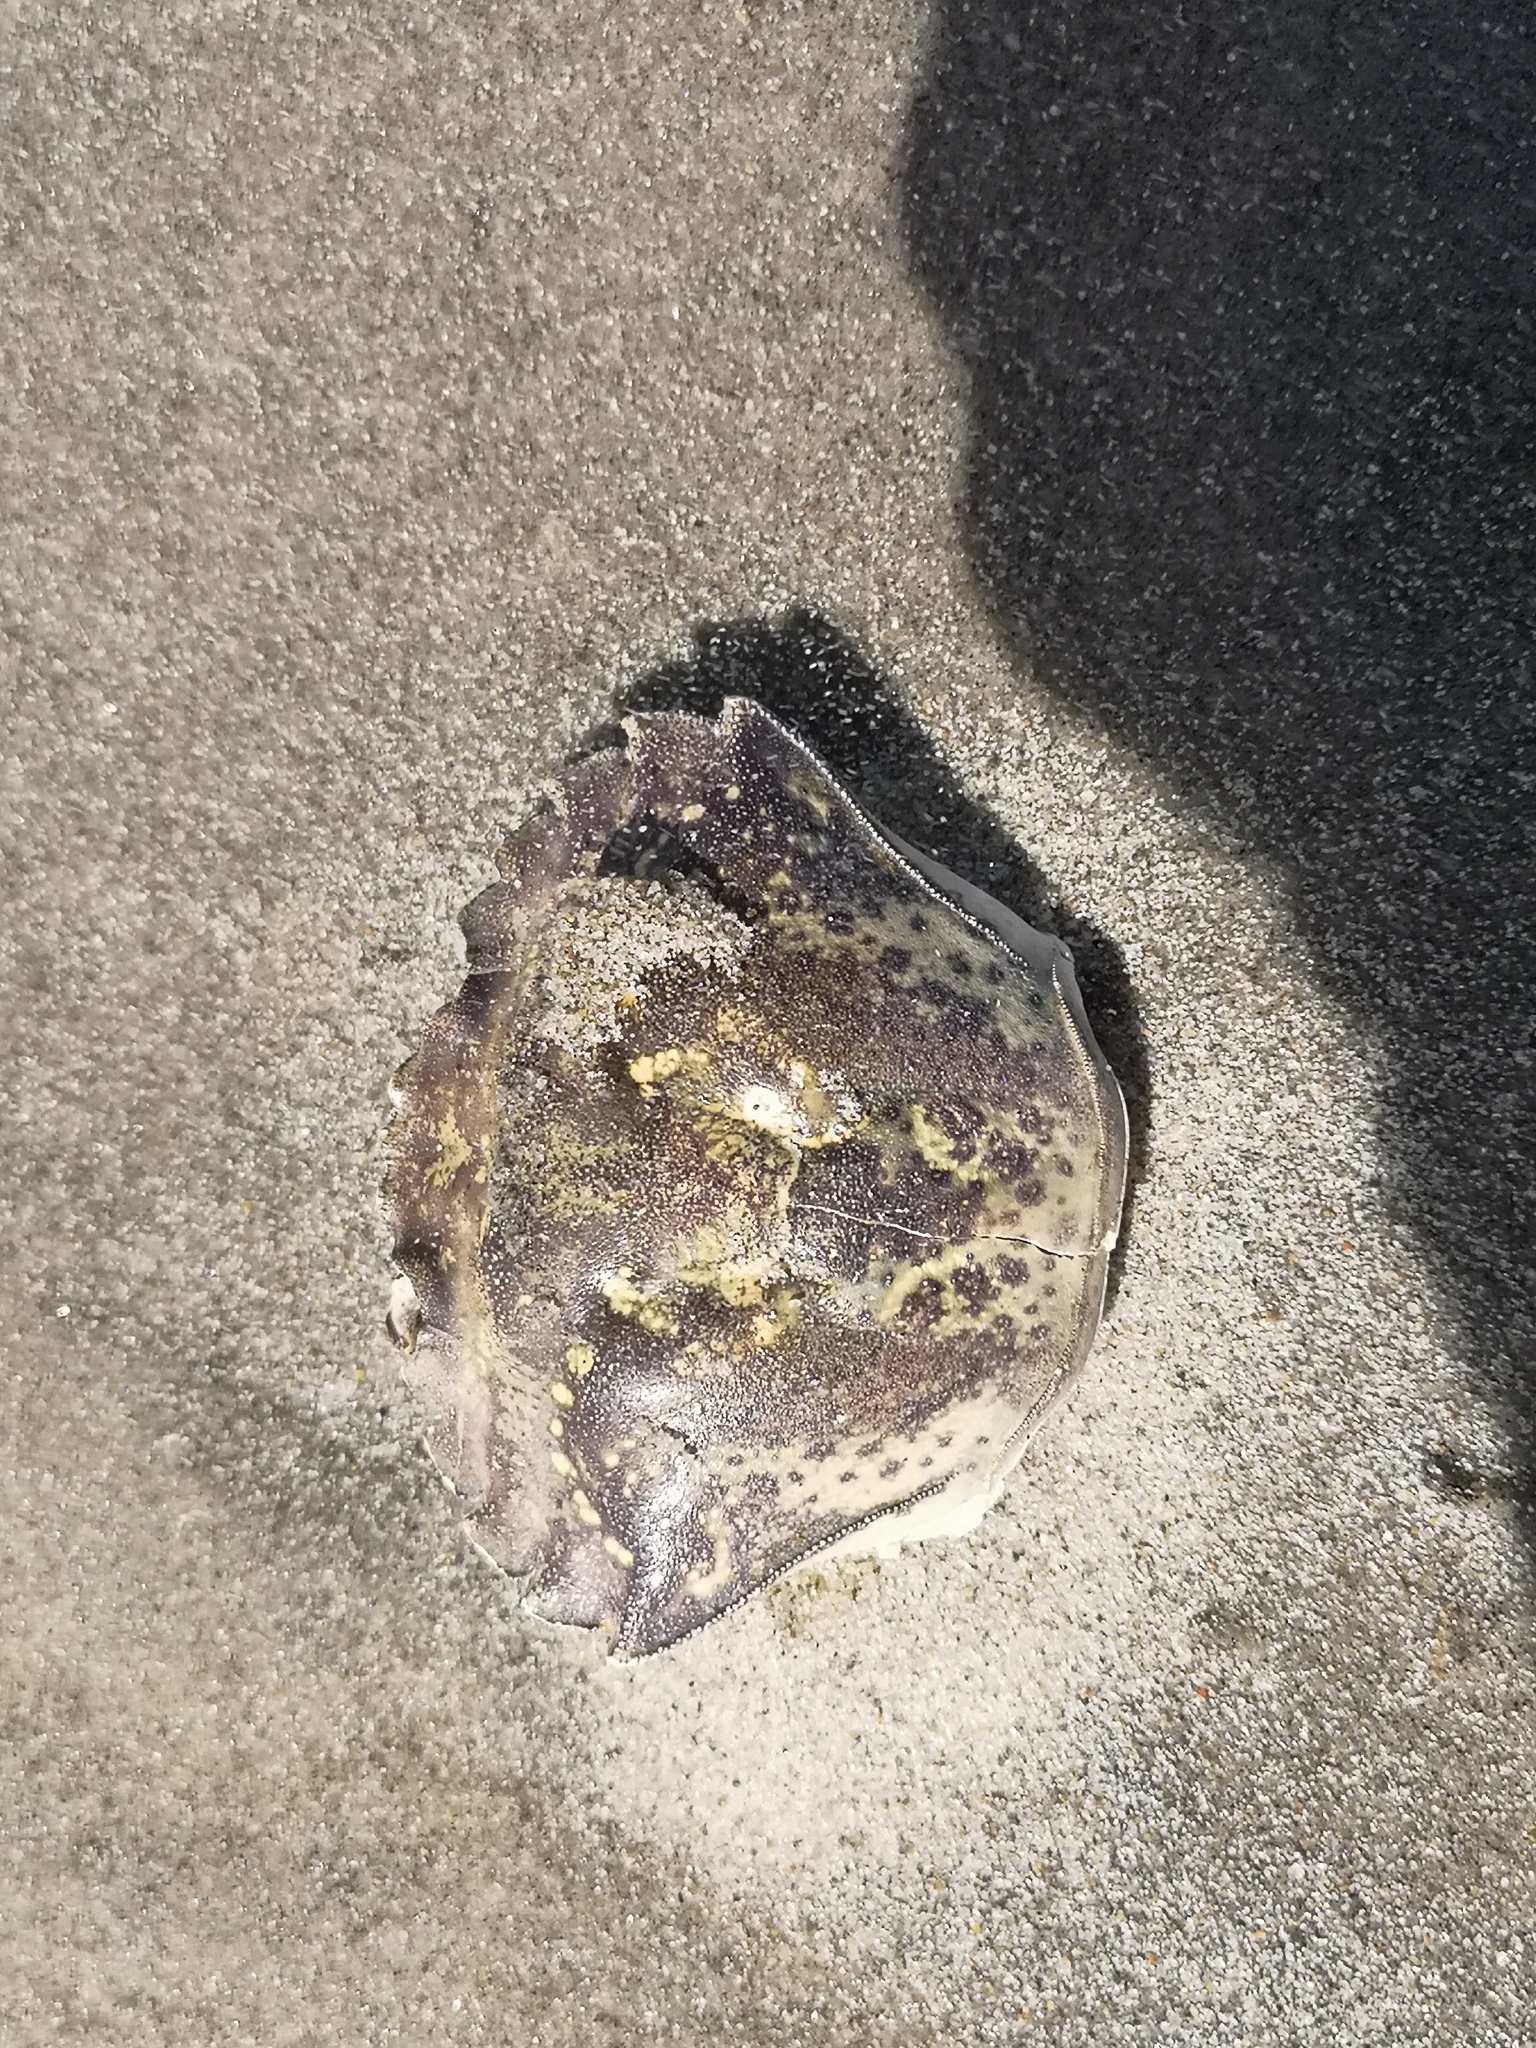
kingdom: Animalia
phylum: Arthropoda
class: Malacostraca
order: Decapoda
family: Carcinidae
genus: Carcinus
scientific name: Carcinus maenas
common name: European green crab
